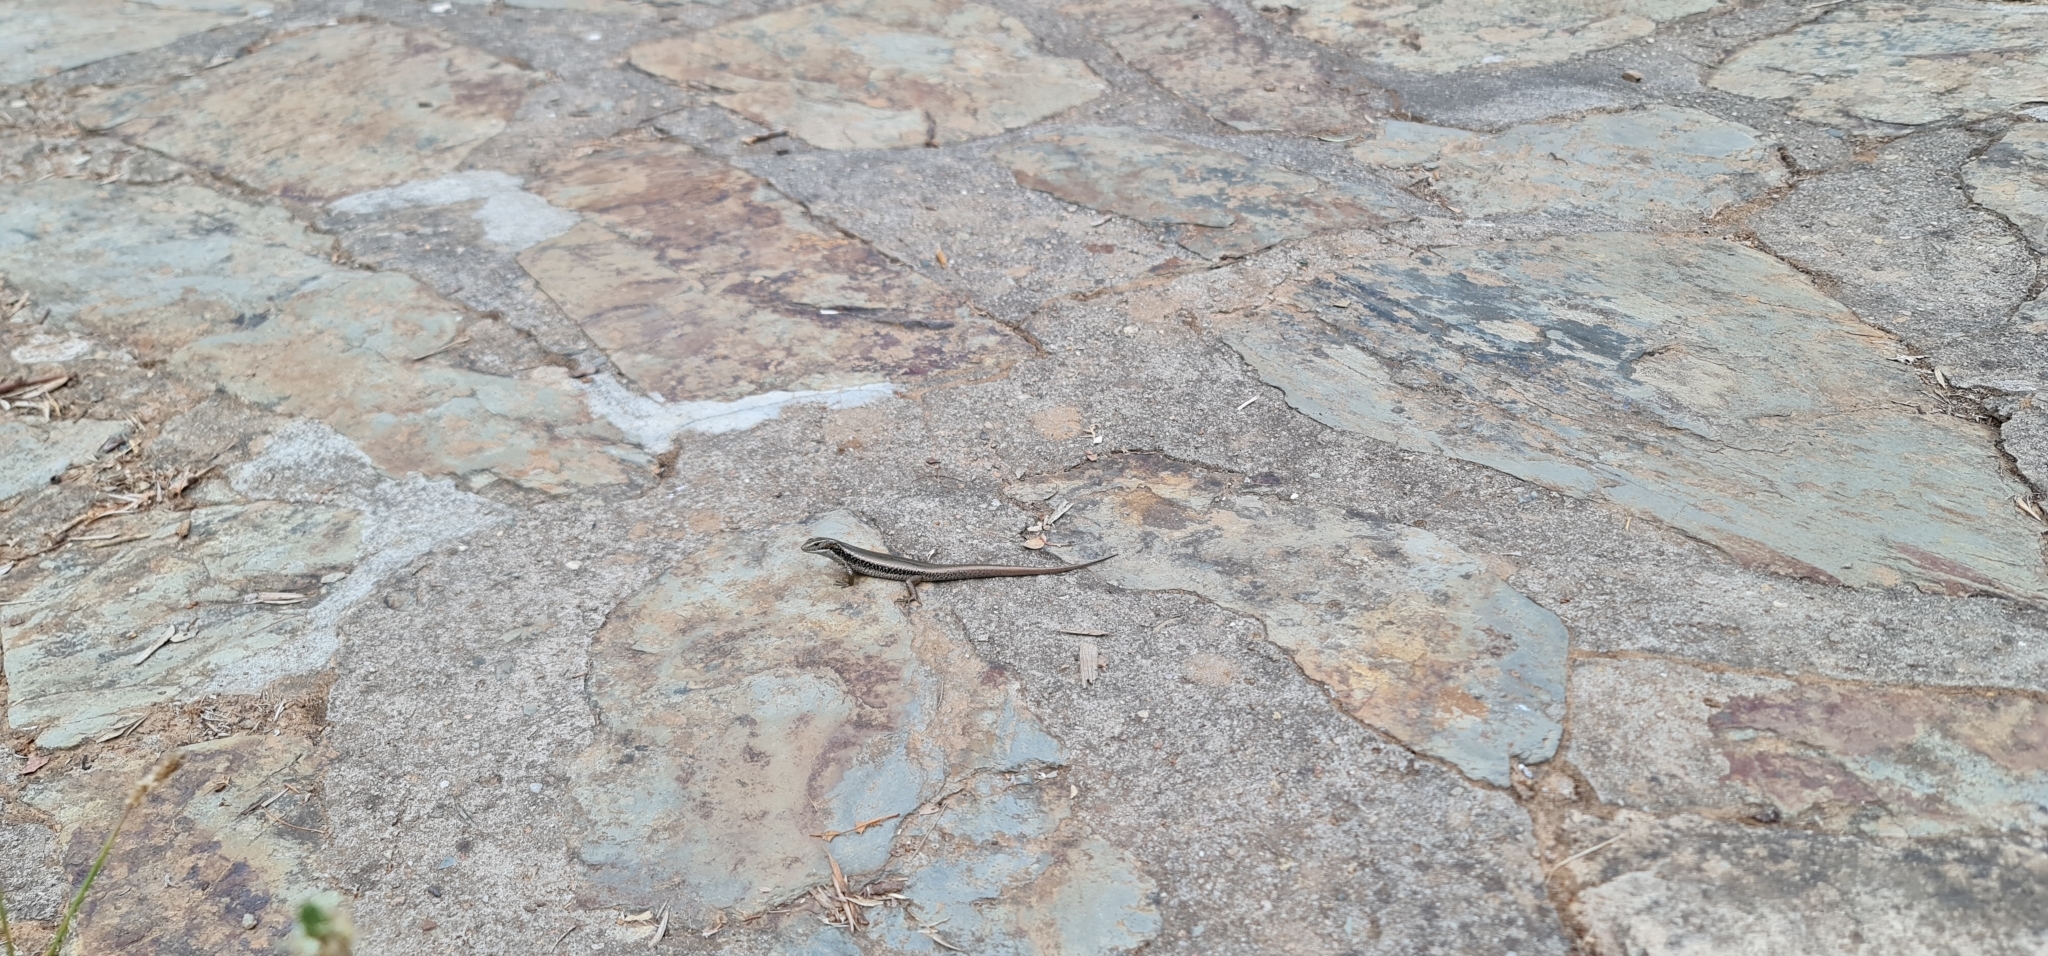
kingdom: Animalia
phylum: Chordata
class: Squamata
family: Scincidae
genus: Eulamprus
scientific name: Eulamprus quoyii
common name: Eastern water skink
